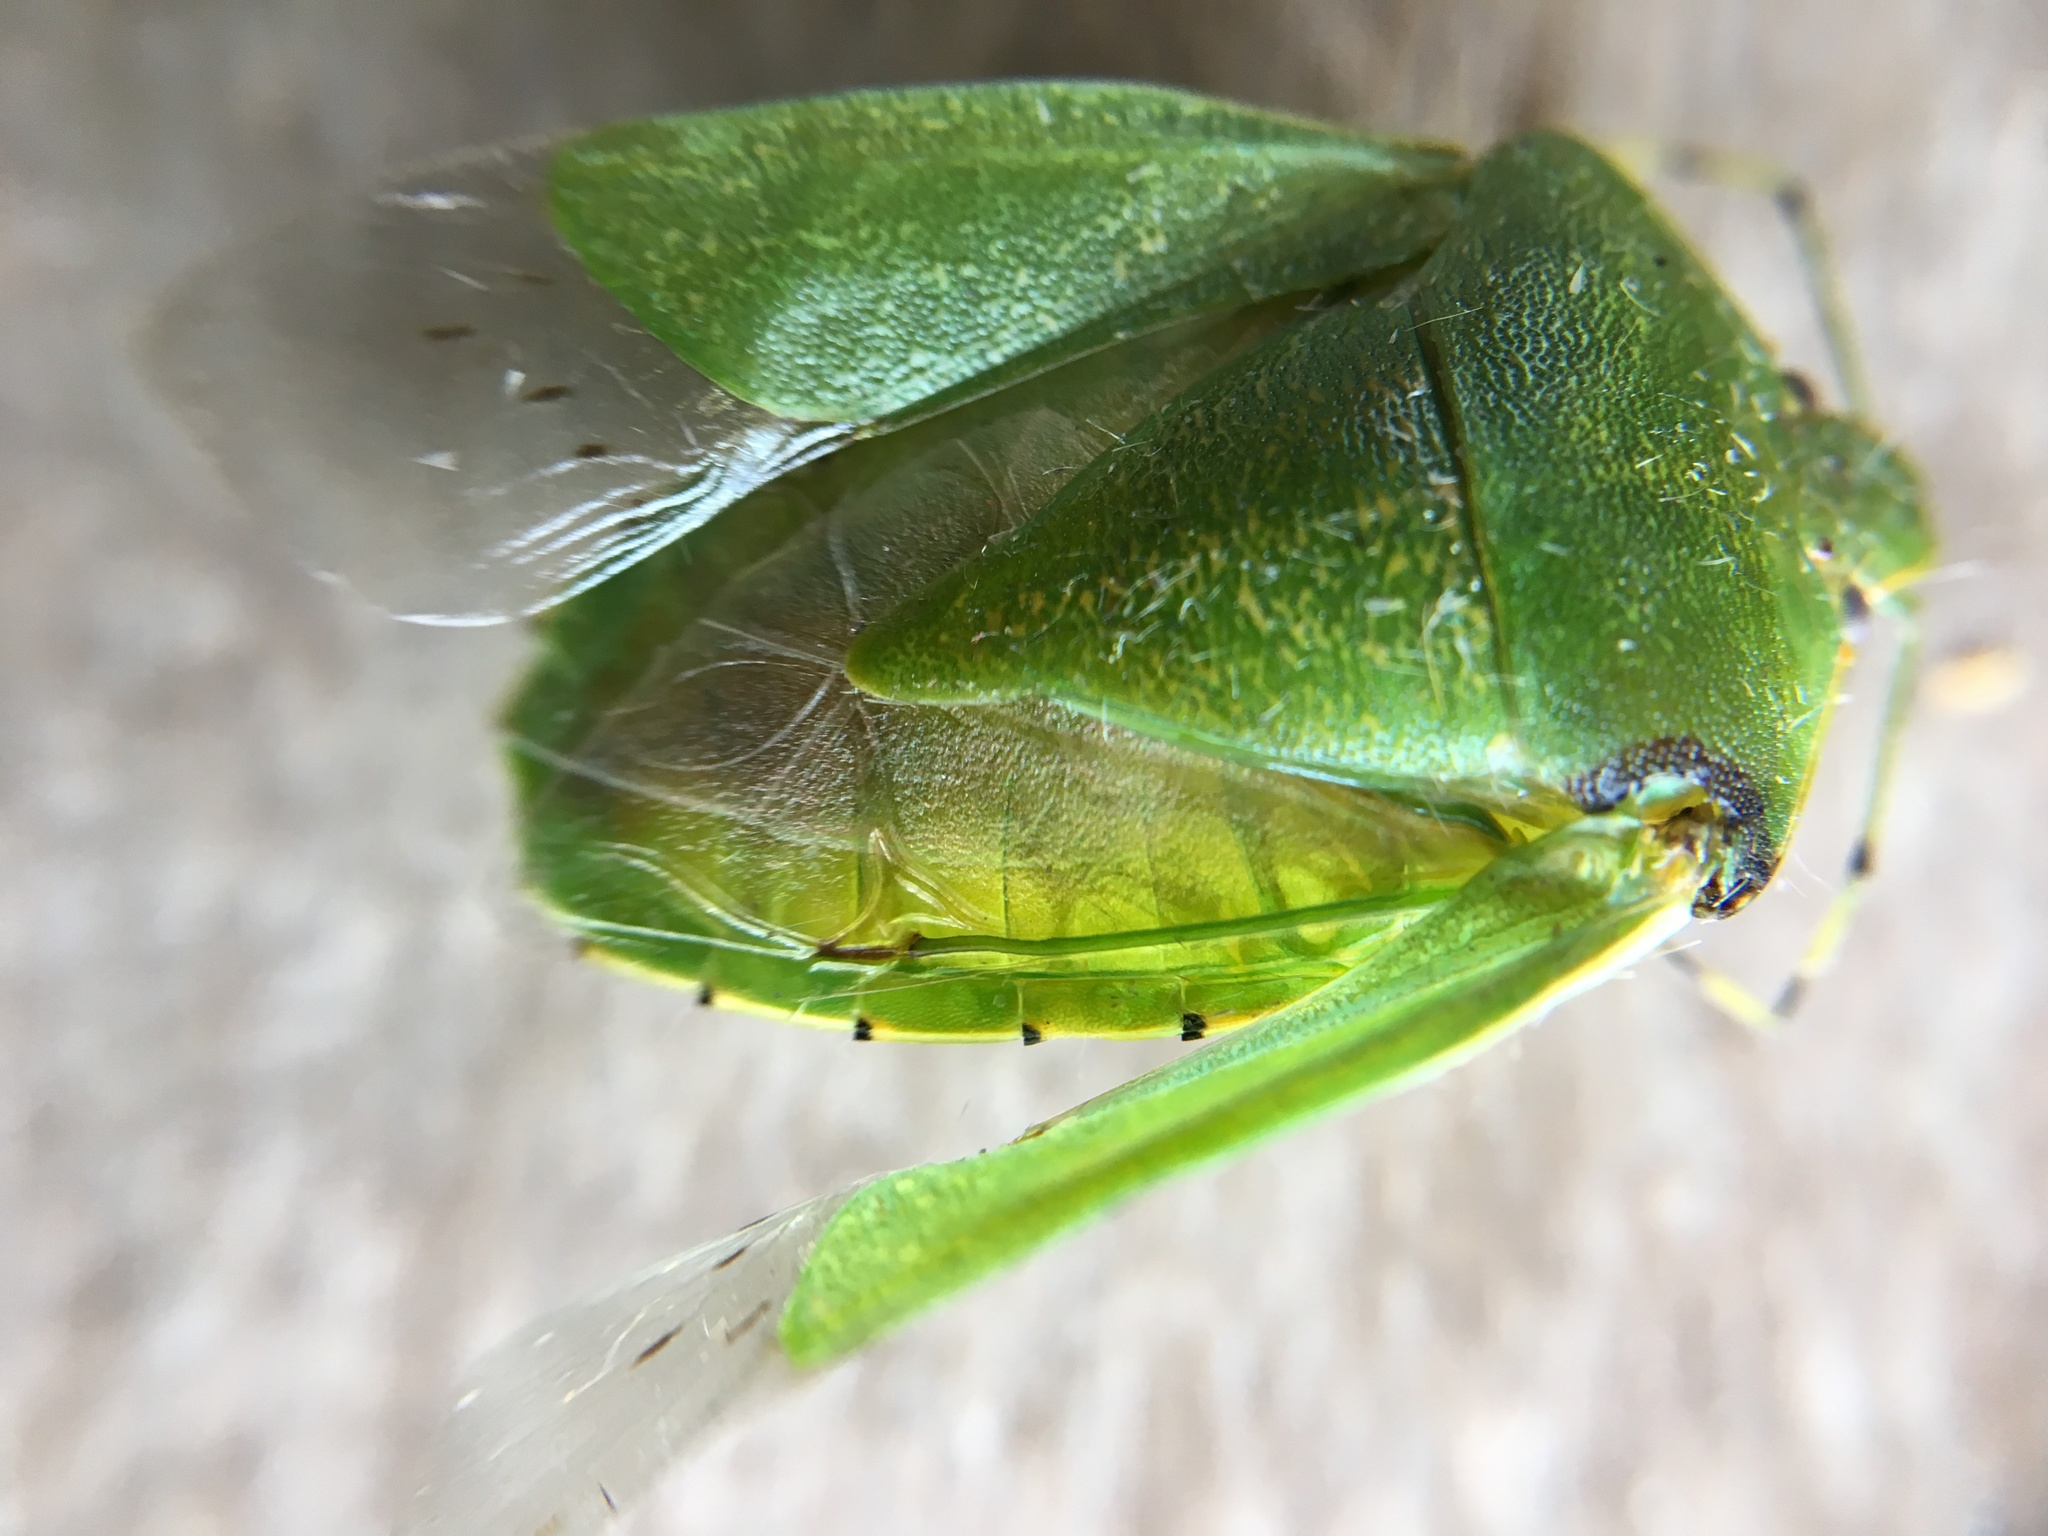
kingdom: Animalia
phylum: Arthropoda
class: Insecta
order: Hemiptera
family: Pentatomidae
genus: Chinavia
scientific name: Chinavia hilaris
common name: Green stink bug
